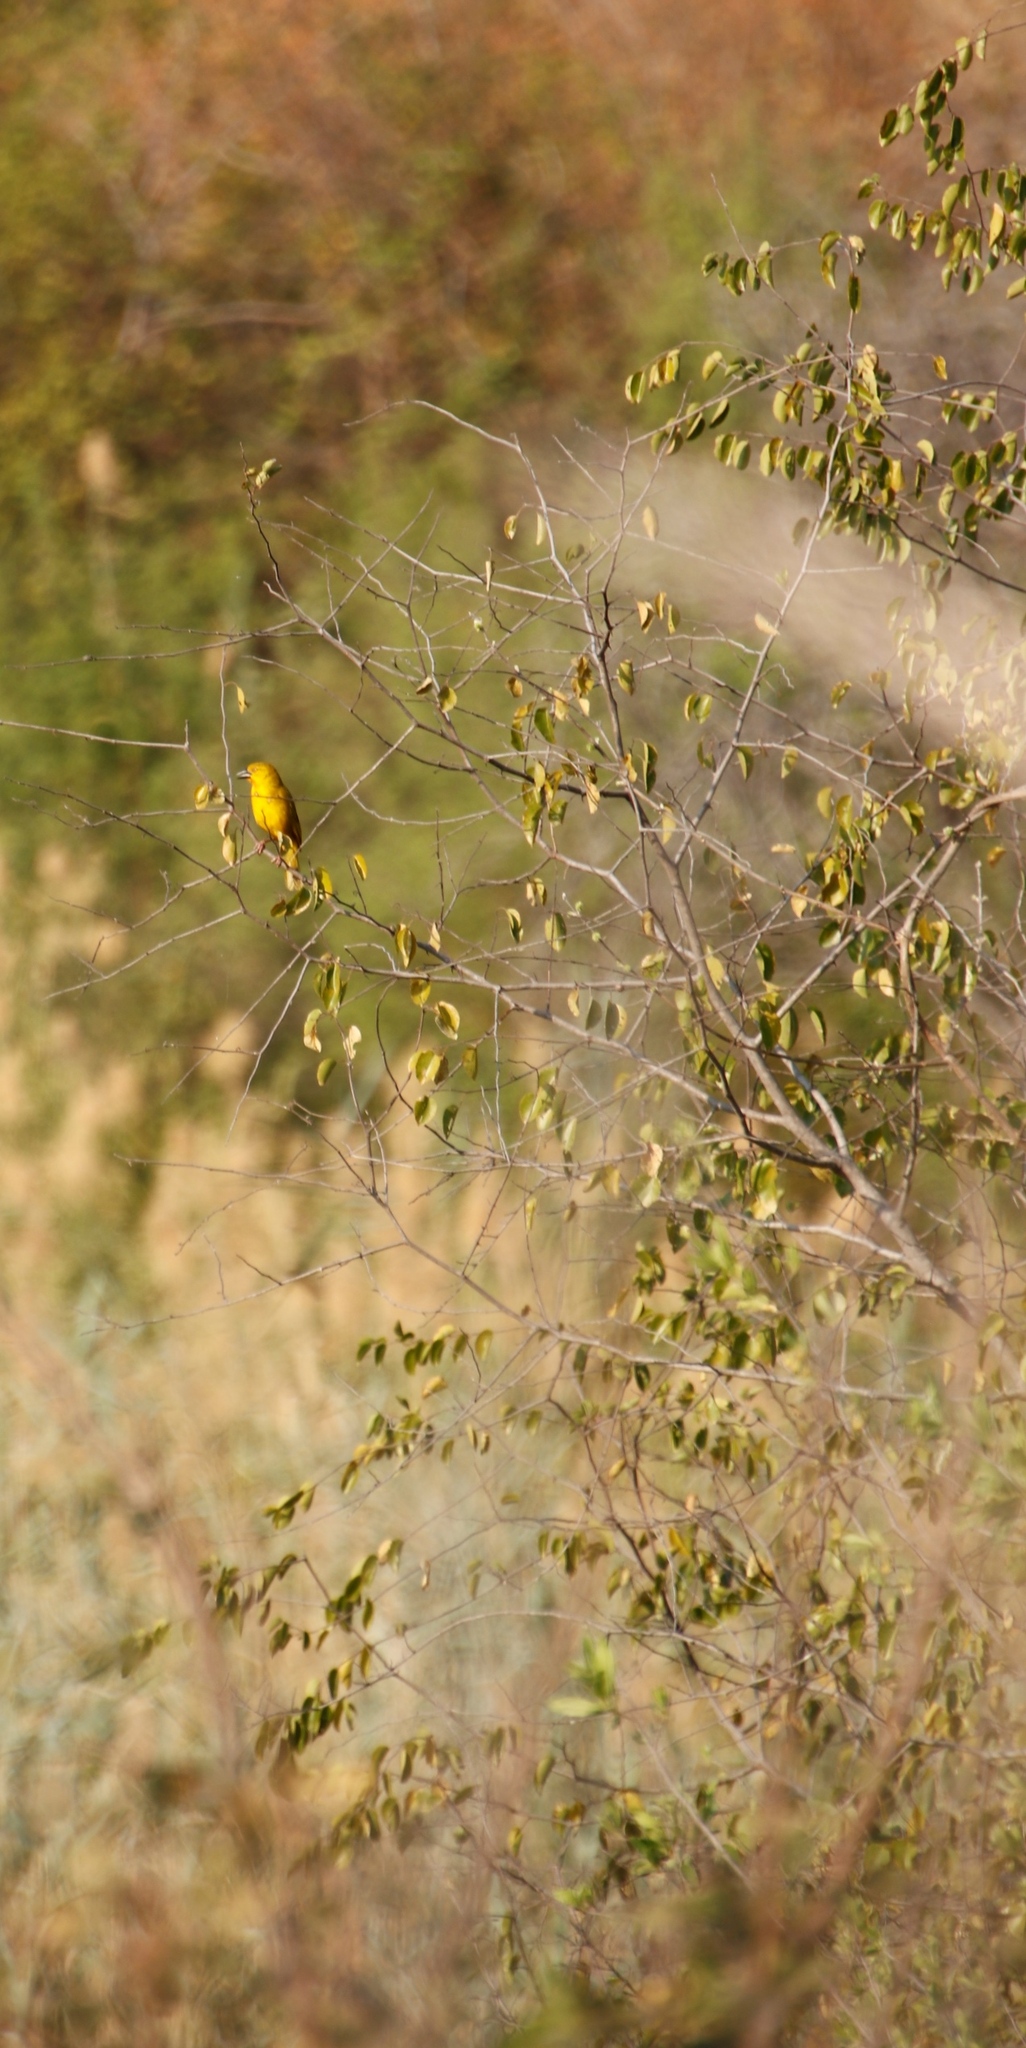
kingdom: Animalia
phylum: Chordata
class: Aves
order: Passeriformes
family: Ploceidae
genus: Ploceus
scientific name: Ploceus xanthops
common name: Holub's golden weaver
